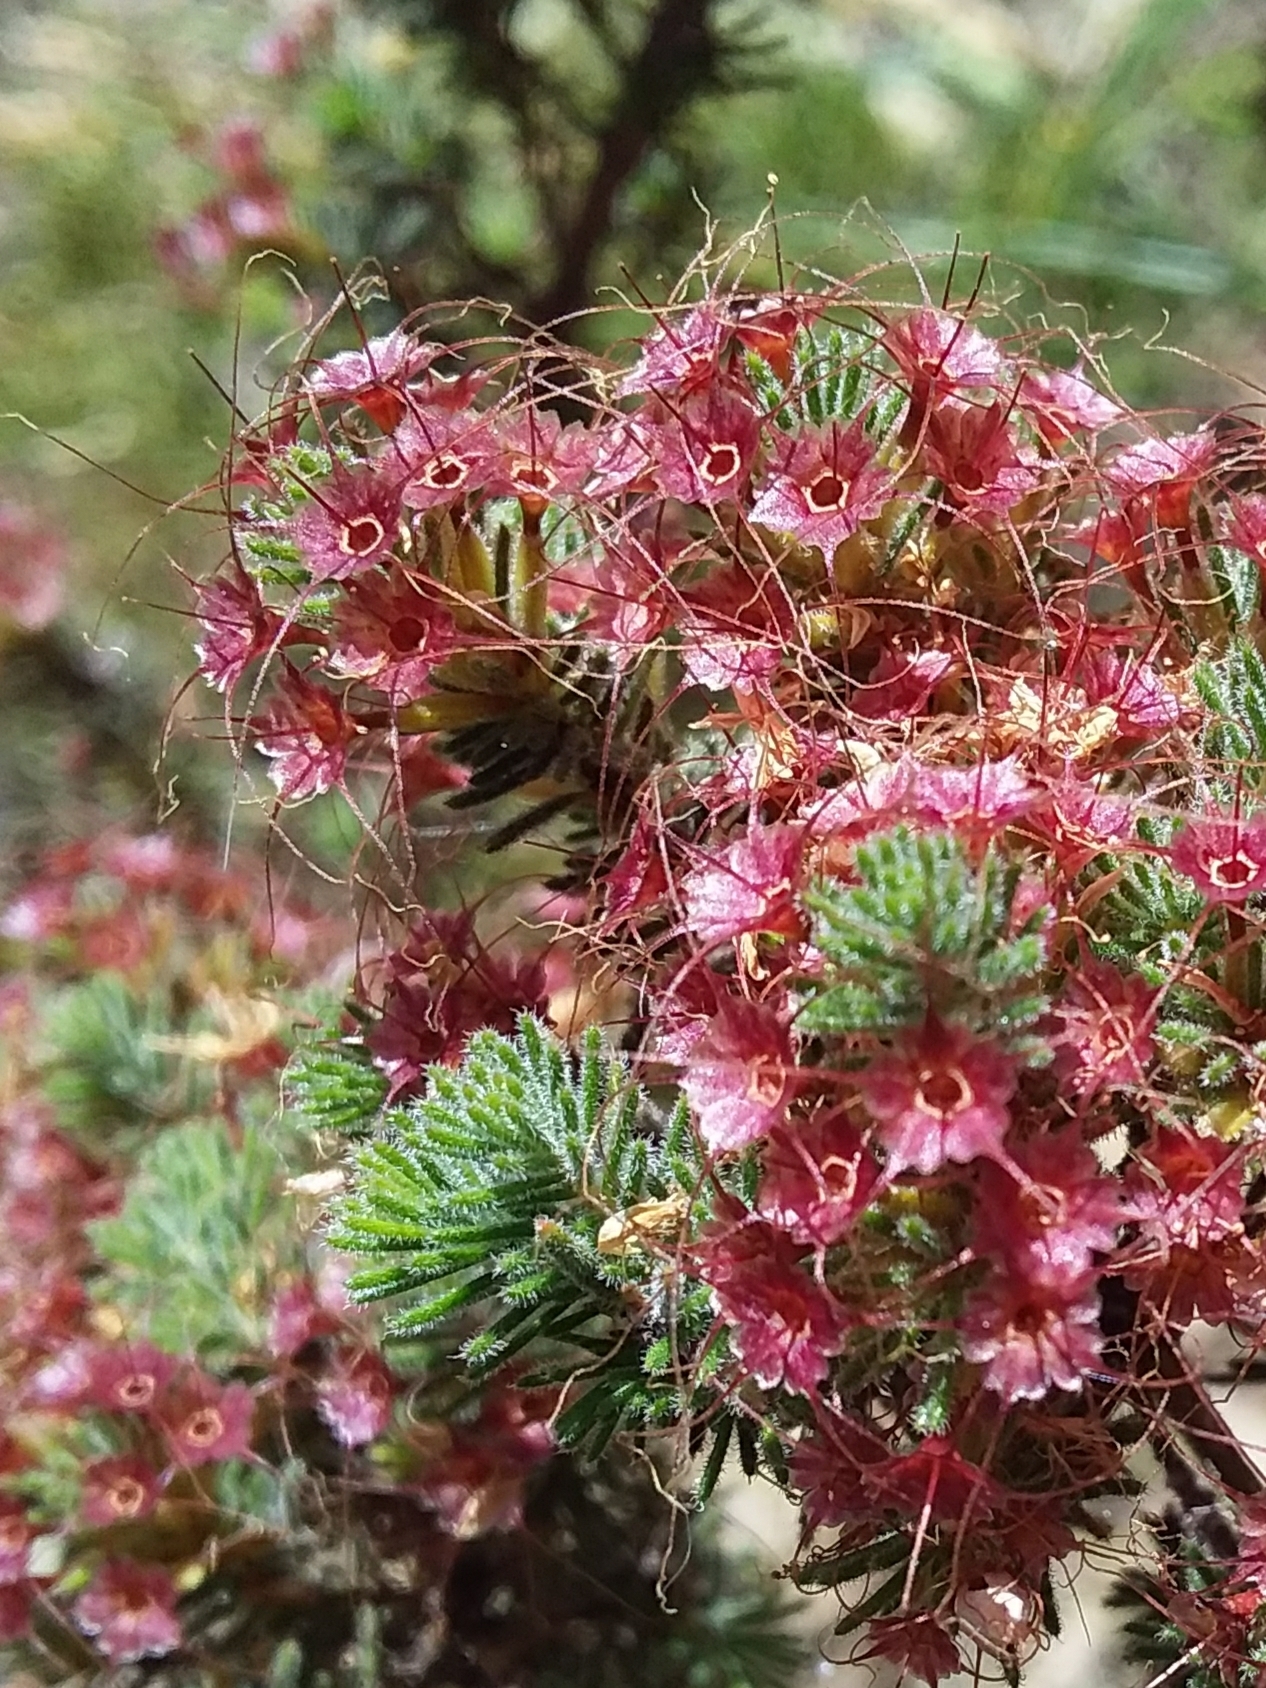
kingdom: Plantae
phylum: Tracheophyta
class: Magnoliopsida
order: Myrtales
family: Myrtaceae
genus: Calytrix
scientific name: Calytrix tetragona
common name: Common fringe myrtle
